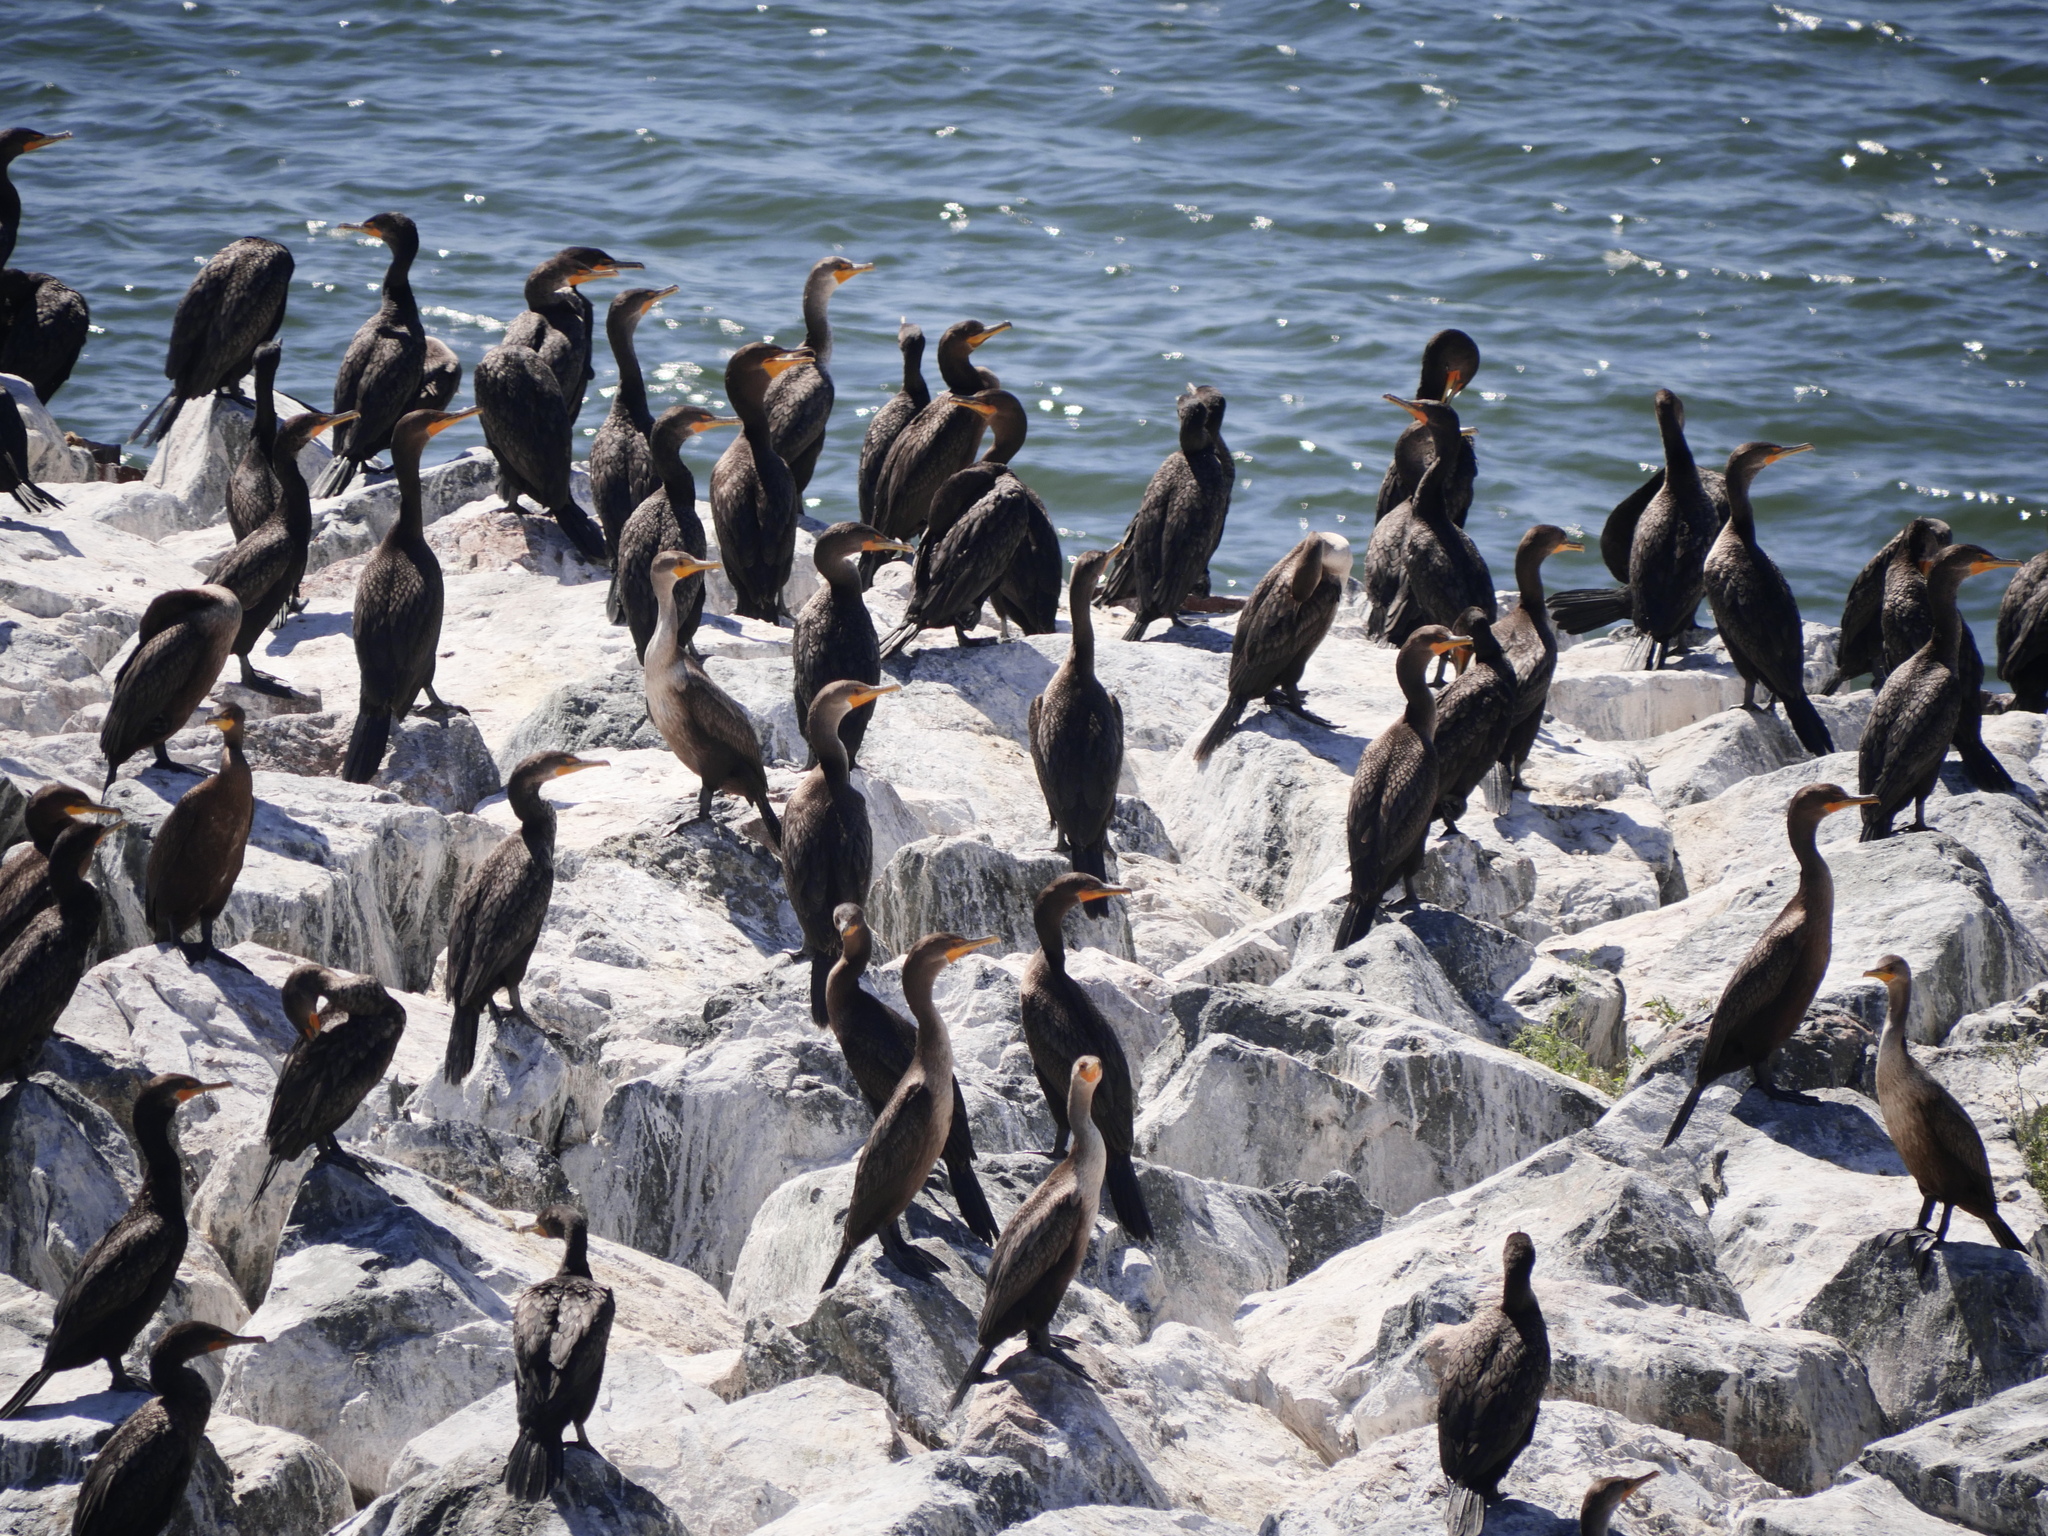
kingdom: Animalia
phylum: Chordata
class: Aves
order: Suliformes
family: Phalacrocoracidae
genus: Phalacrocorax
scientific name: Phalacrocorax auritus
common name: Double-crested cormorant
